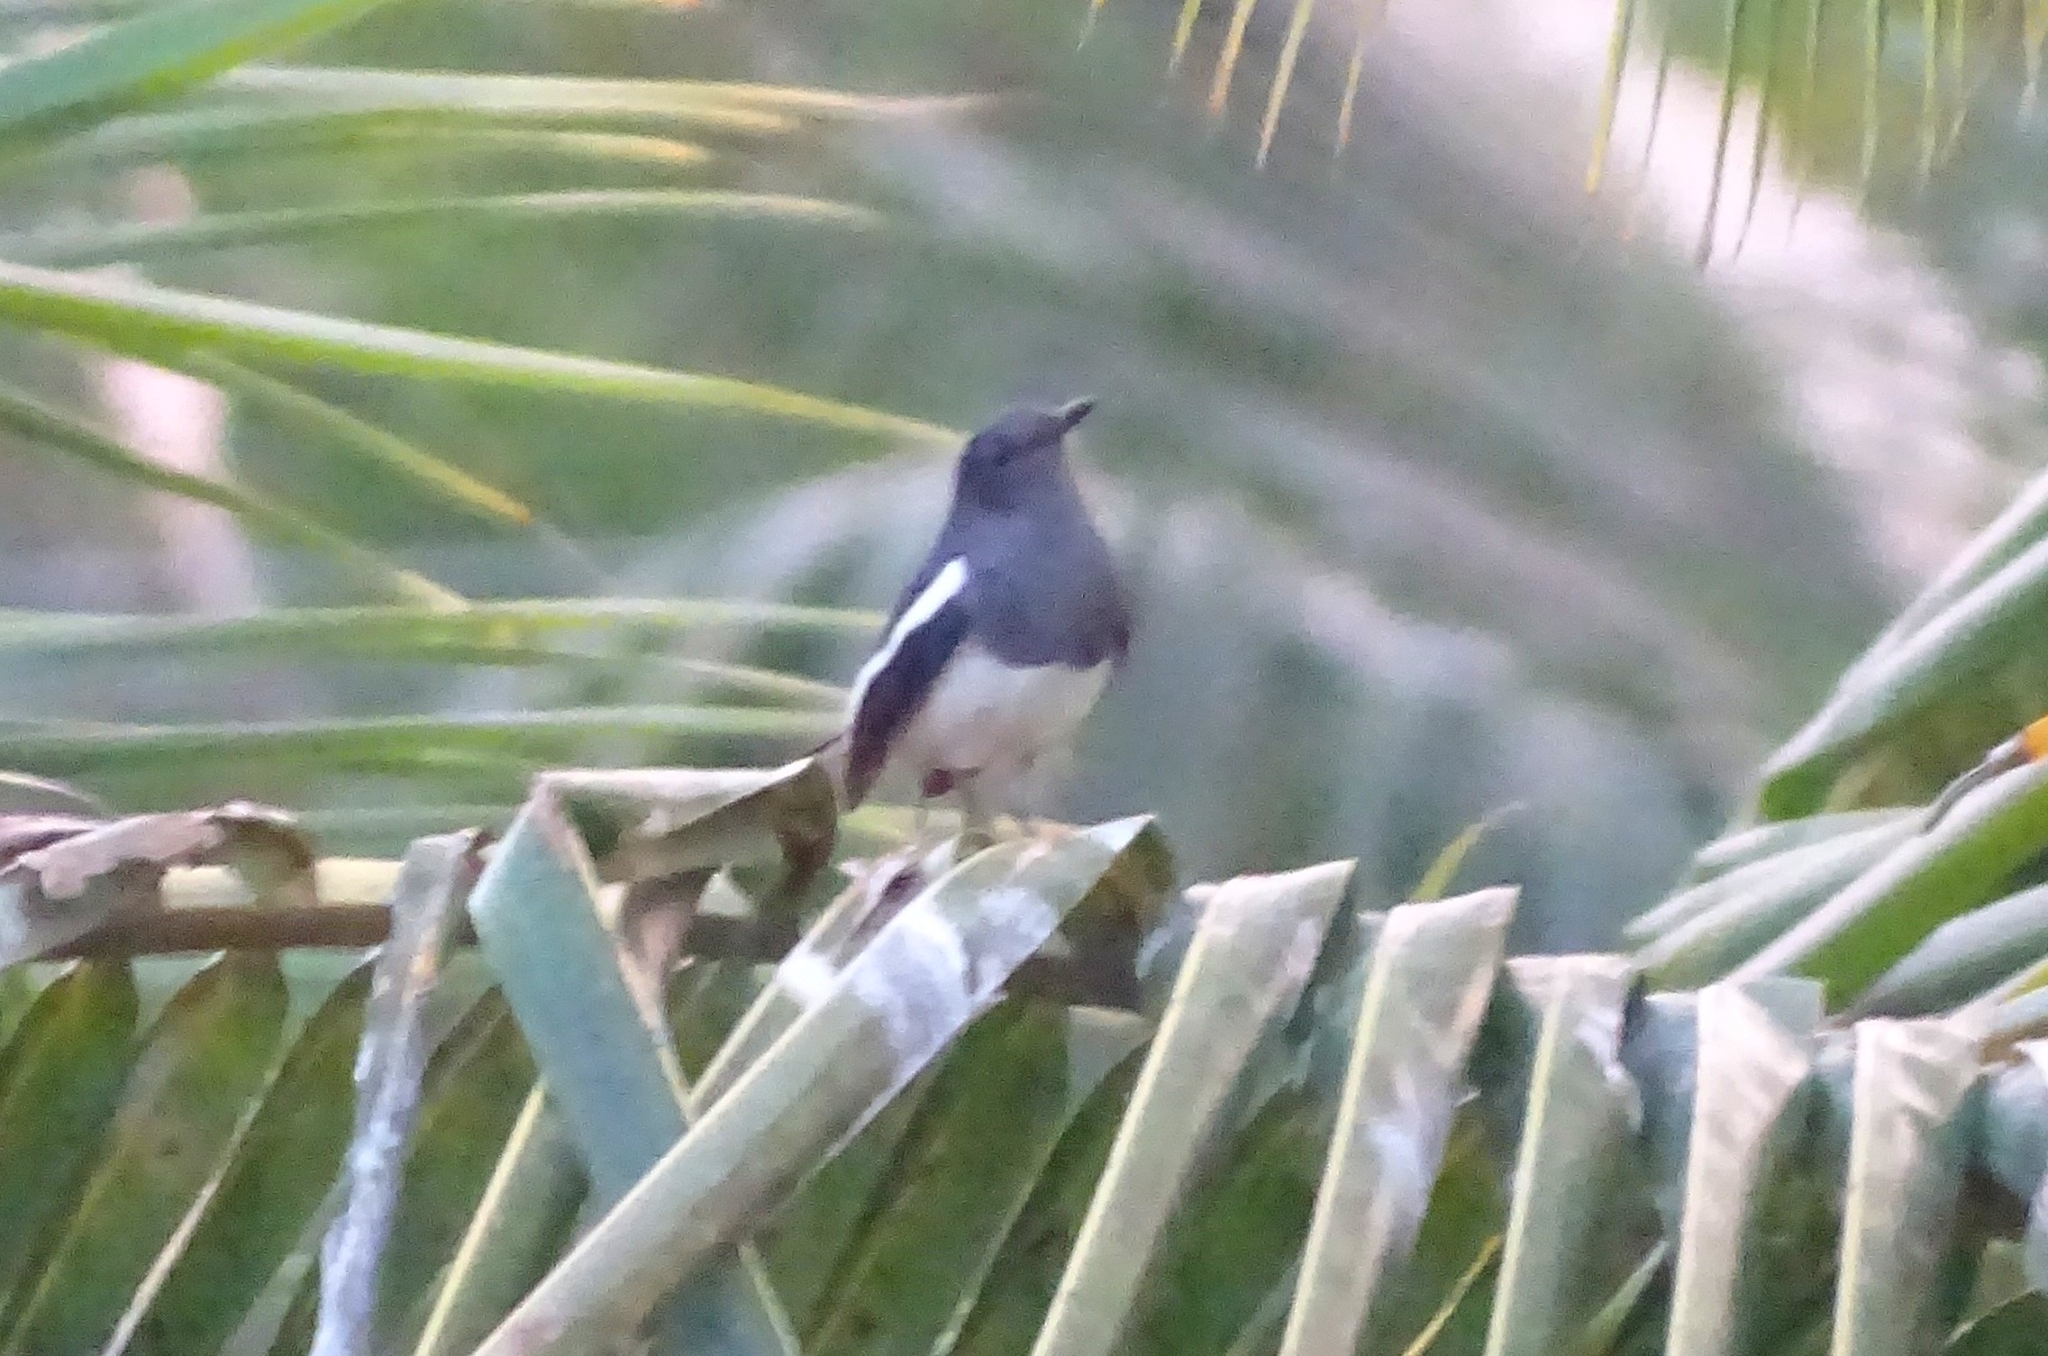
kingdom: Animalia
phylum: Chordata
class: Aves
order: Passeriformes
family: Muscicapidae
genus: Copsychus
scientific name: Copsychus saularis
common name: Oriental magpie-robin
